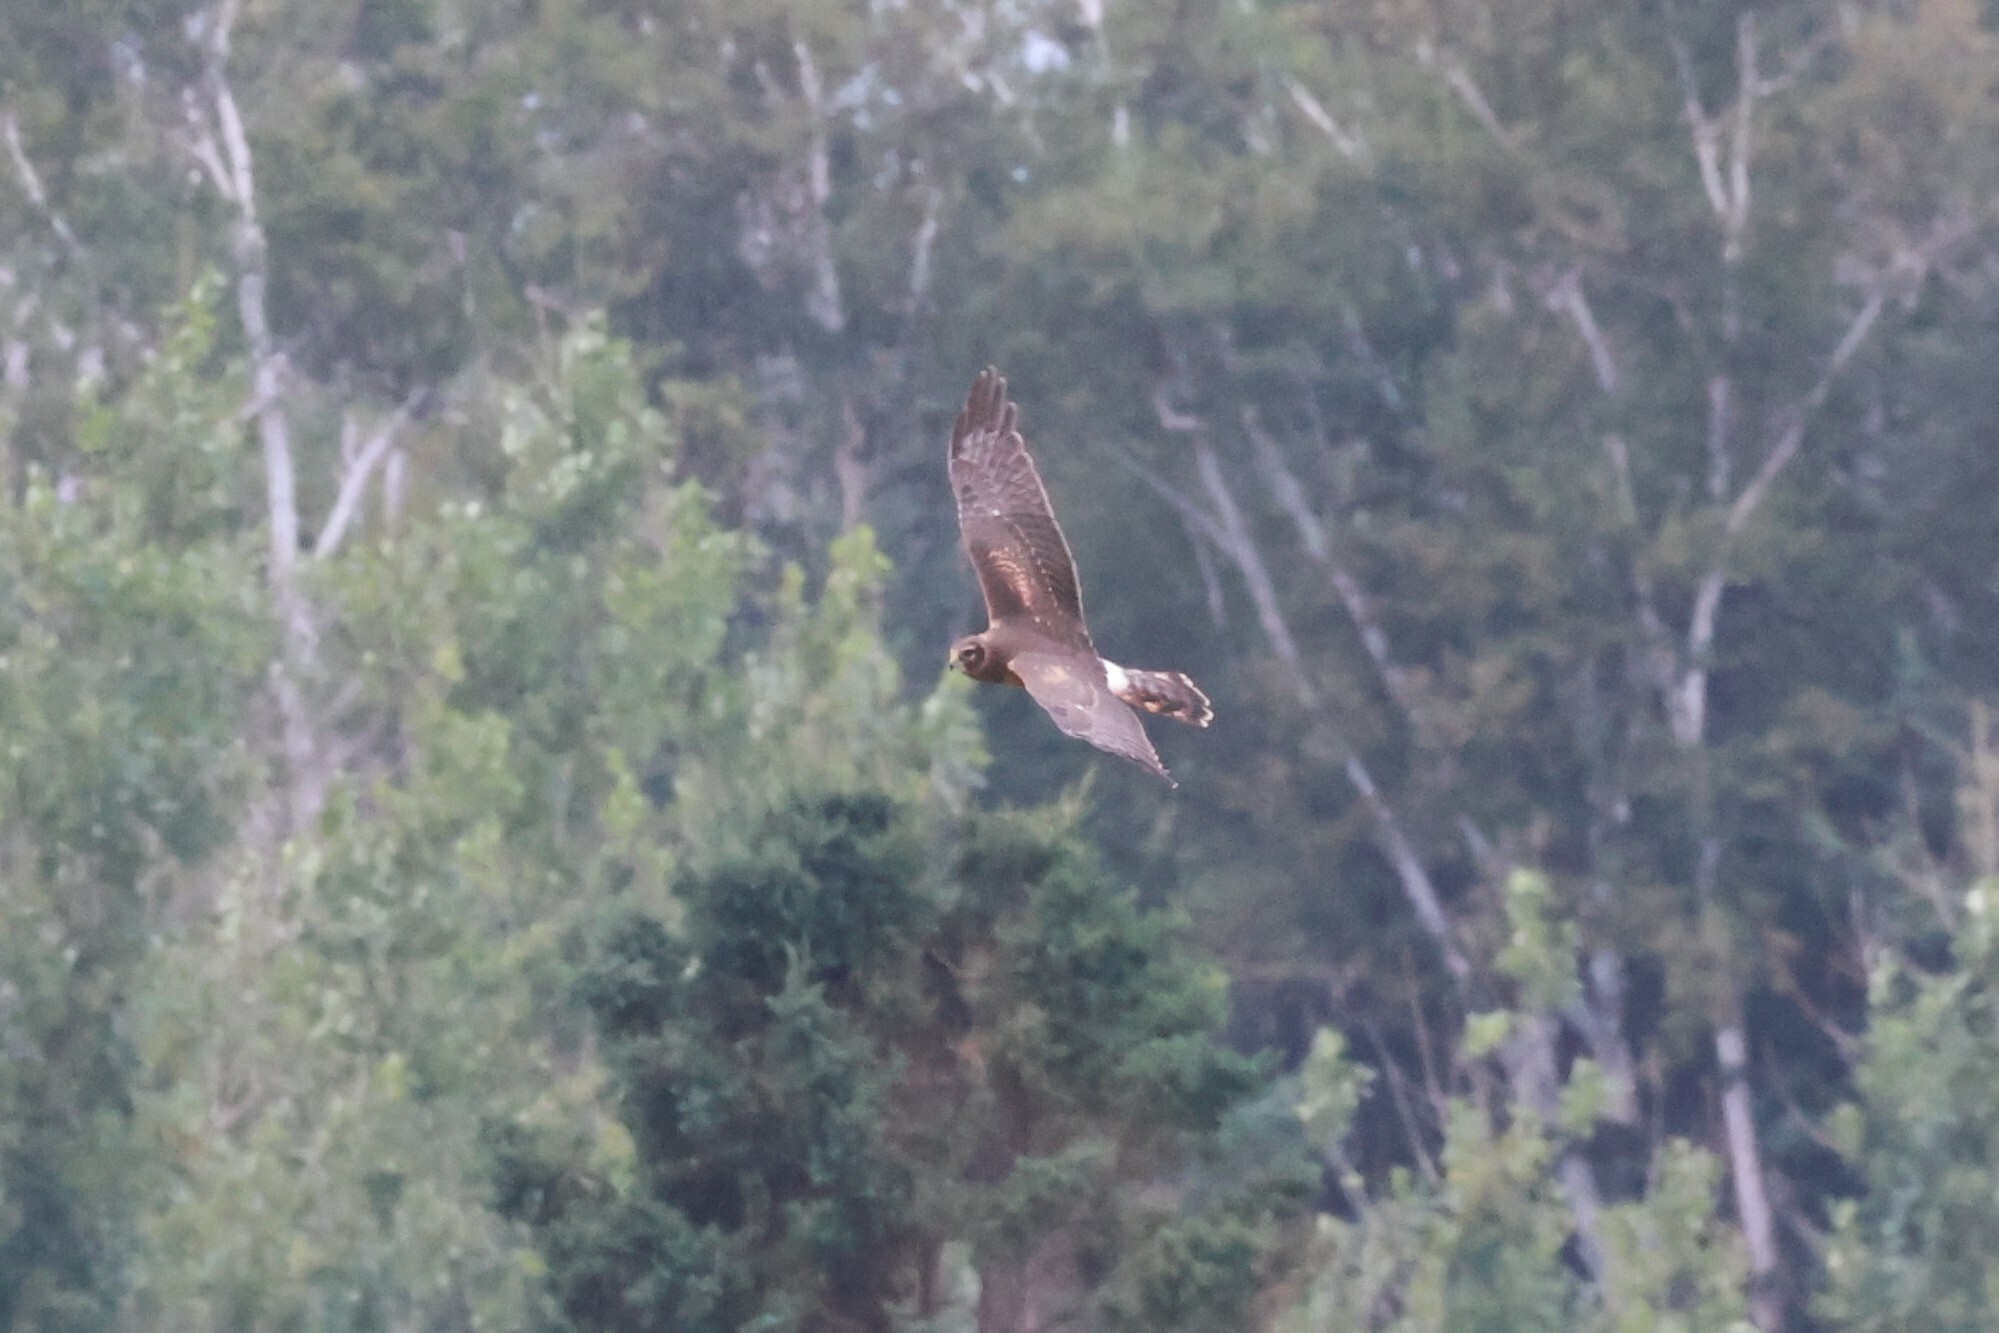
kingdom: Animalia
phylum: Chordata
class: Aves
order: Accipitriformes
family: Accipitridae
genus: Circus
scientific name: Circus cyaneus
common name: Hen harrier
